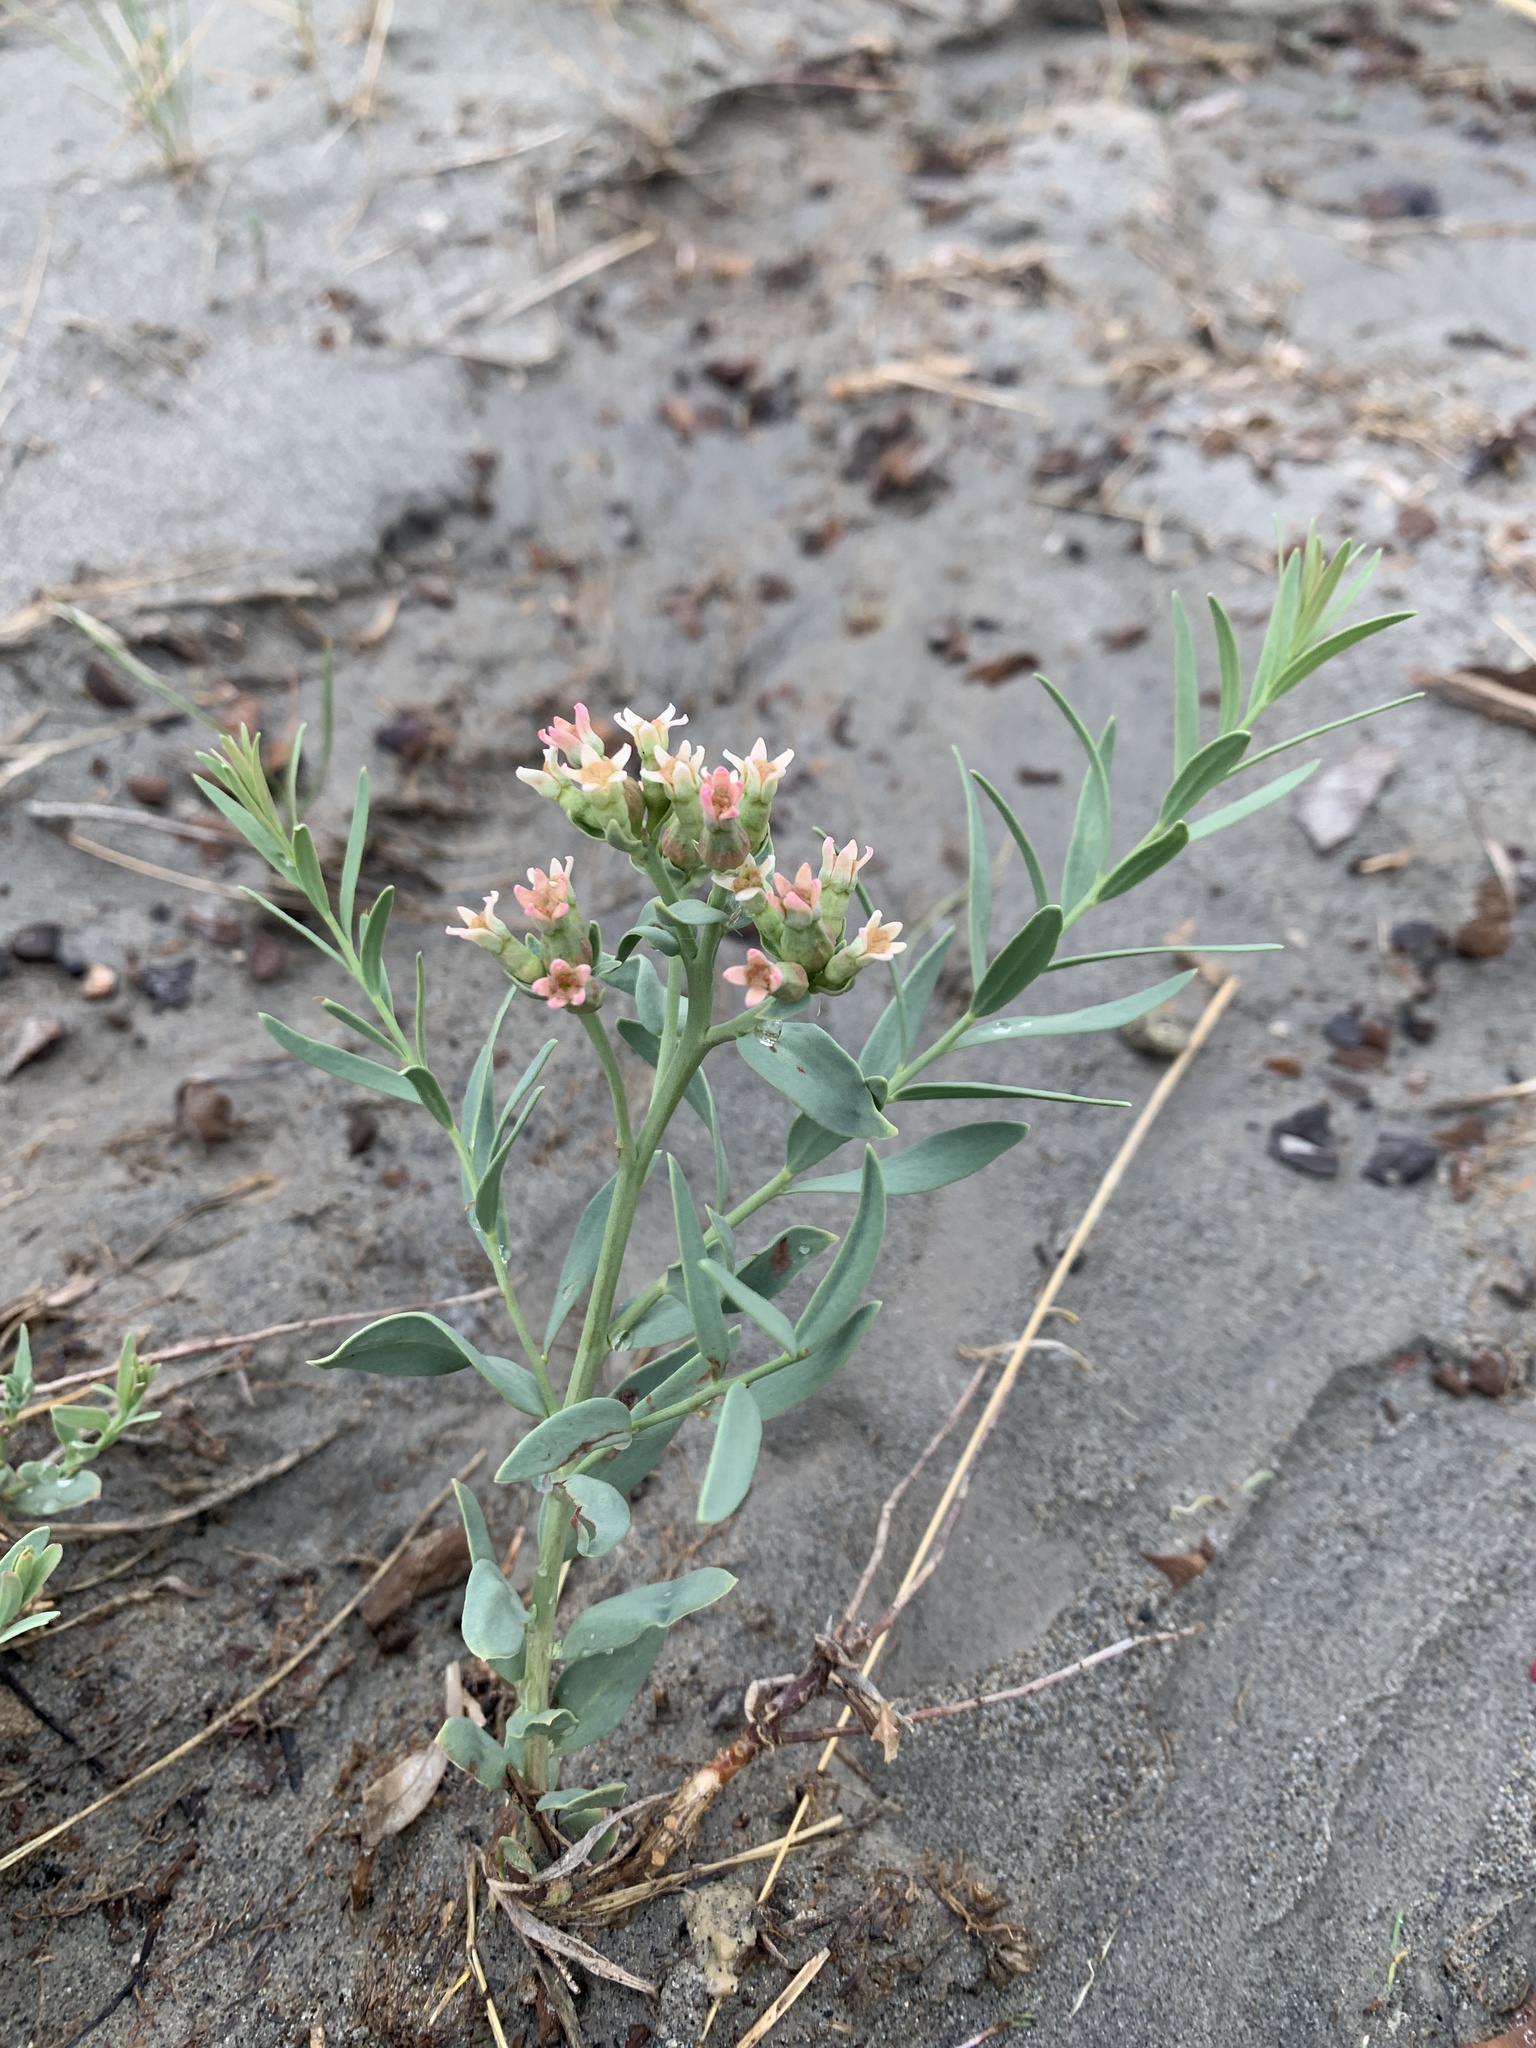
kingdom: Plantae
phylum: Tracheophyta
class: Magnoliopsida
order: Santalales
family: Comandraceae
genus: Comandra
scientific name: Comandra umbellata
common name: Bastard toadflax
